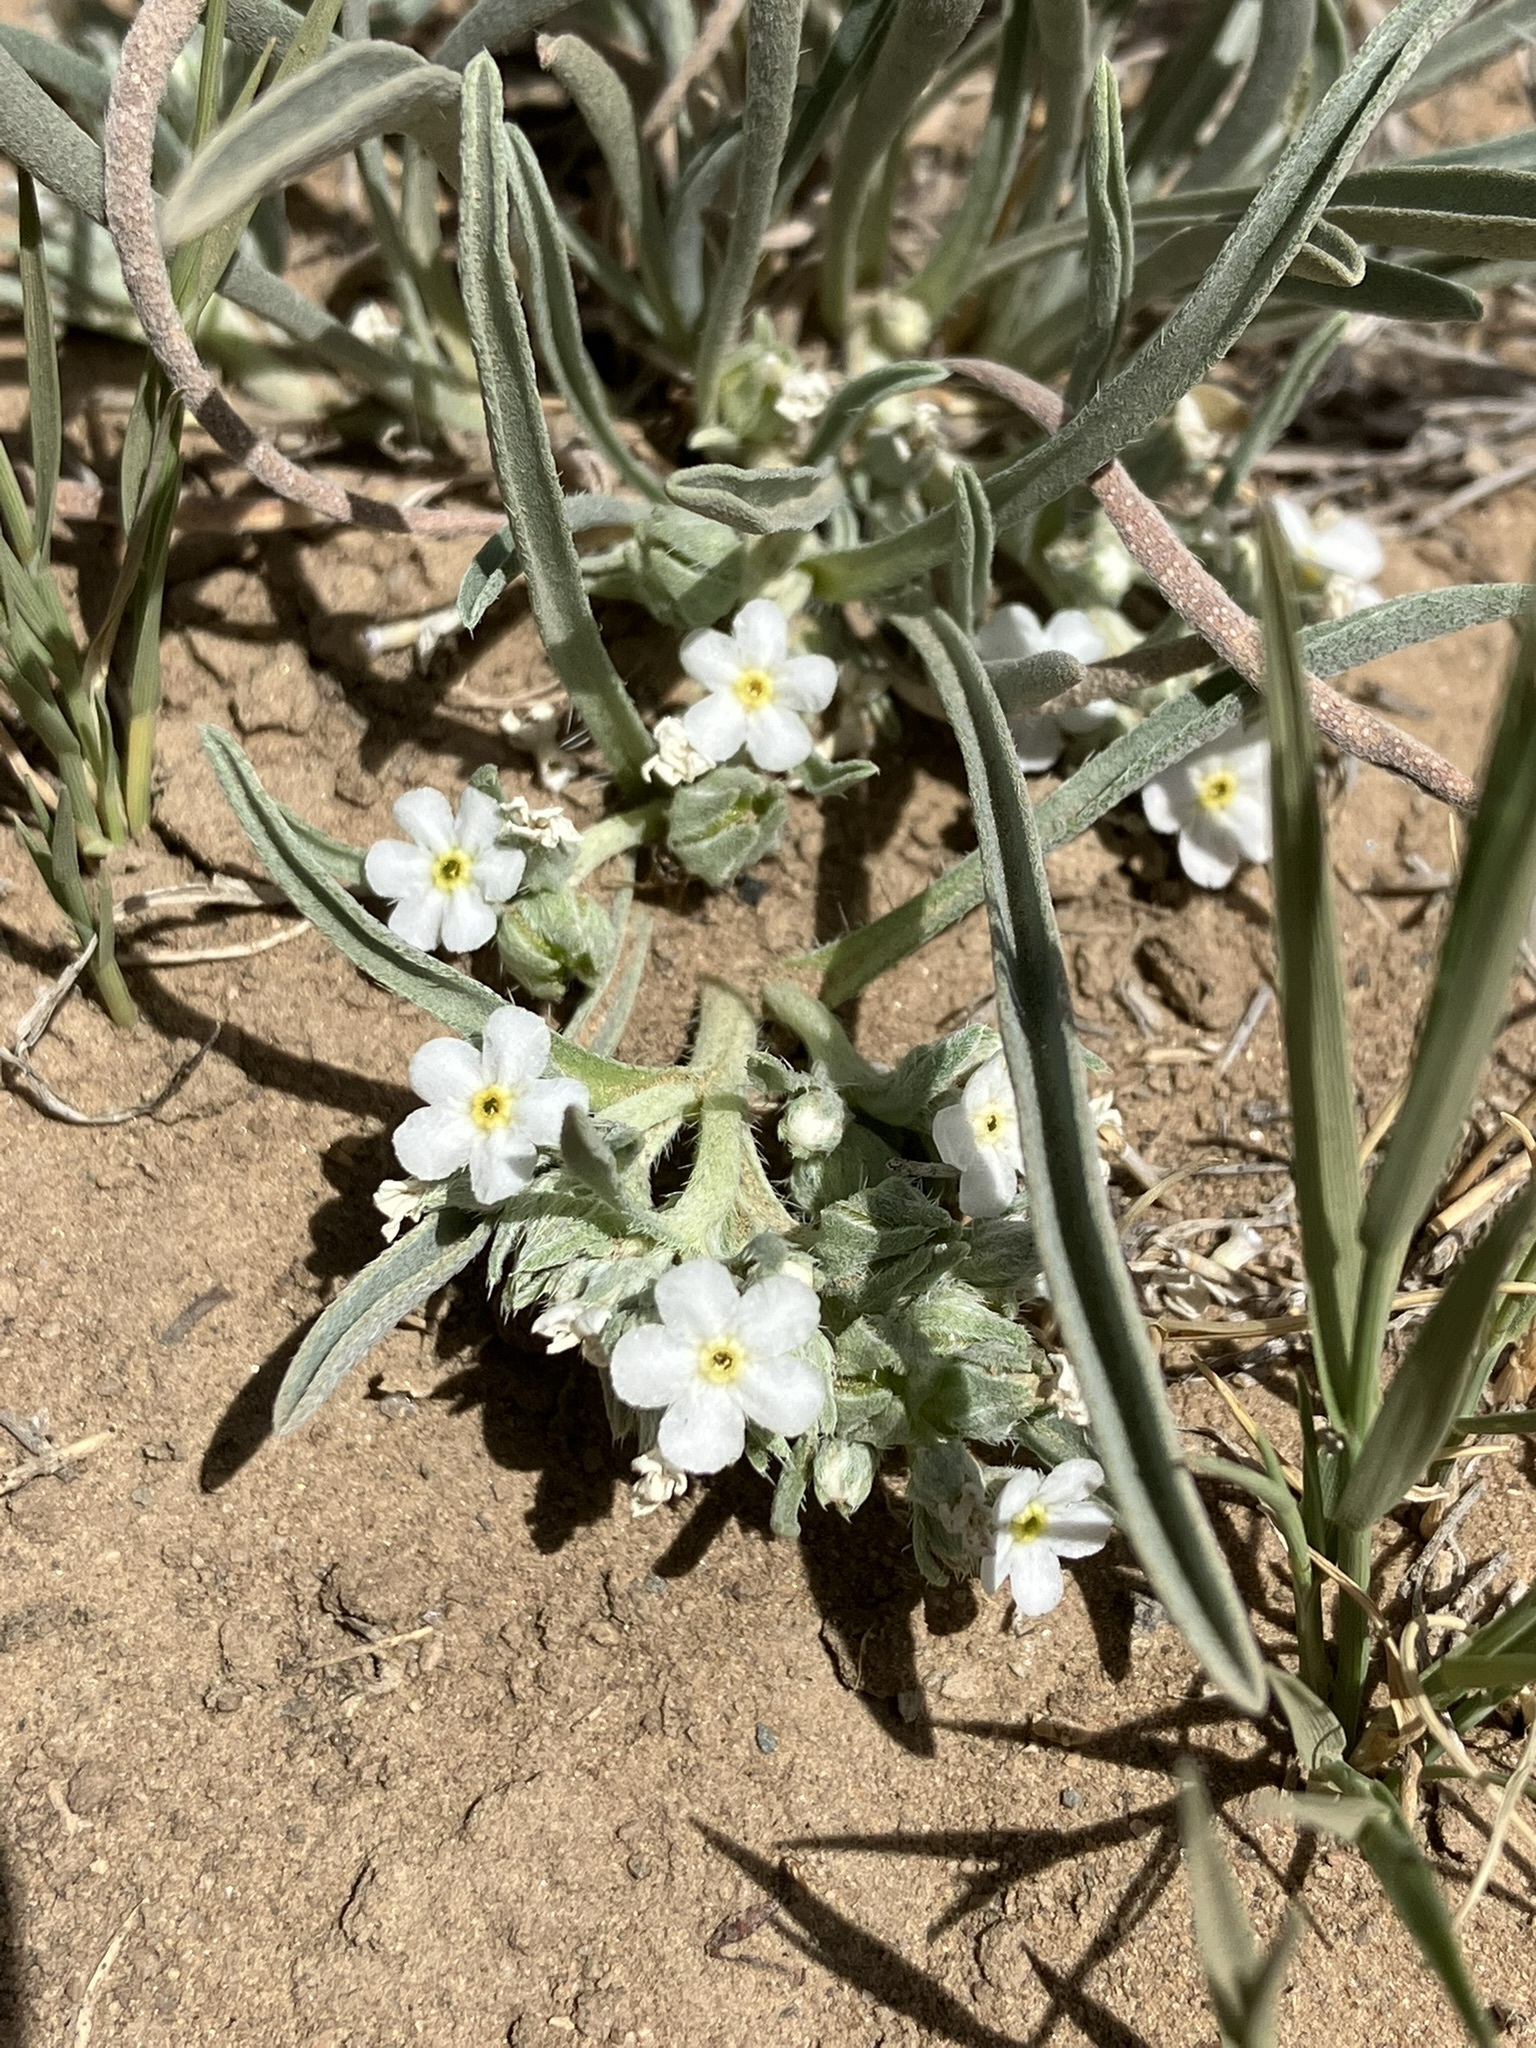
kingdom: Plantae
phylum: Tracheophyta
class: Magnoliopsida
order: Boraginales
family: Boraginaceae
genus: Oreocarya
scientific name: Oreocarya abortiva
